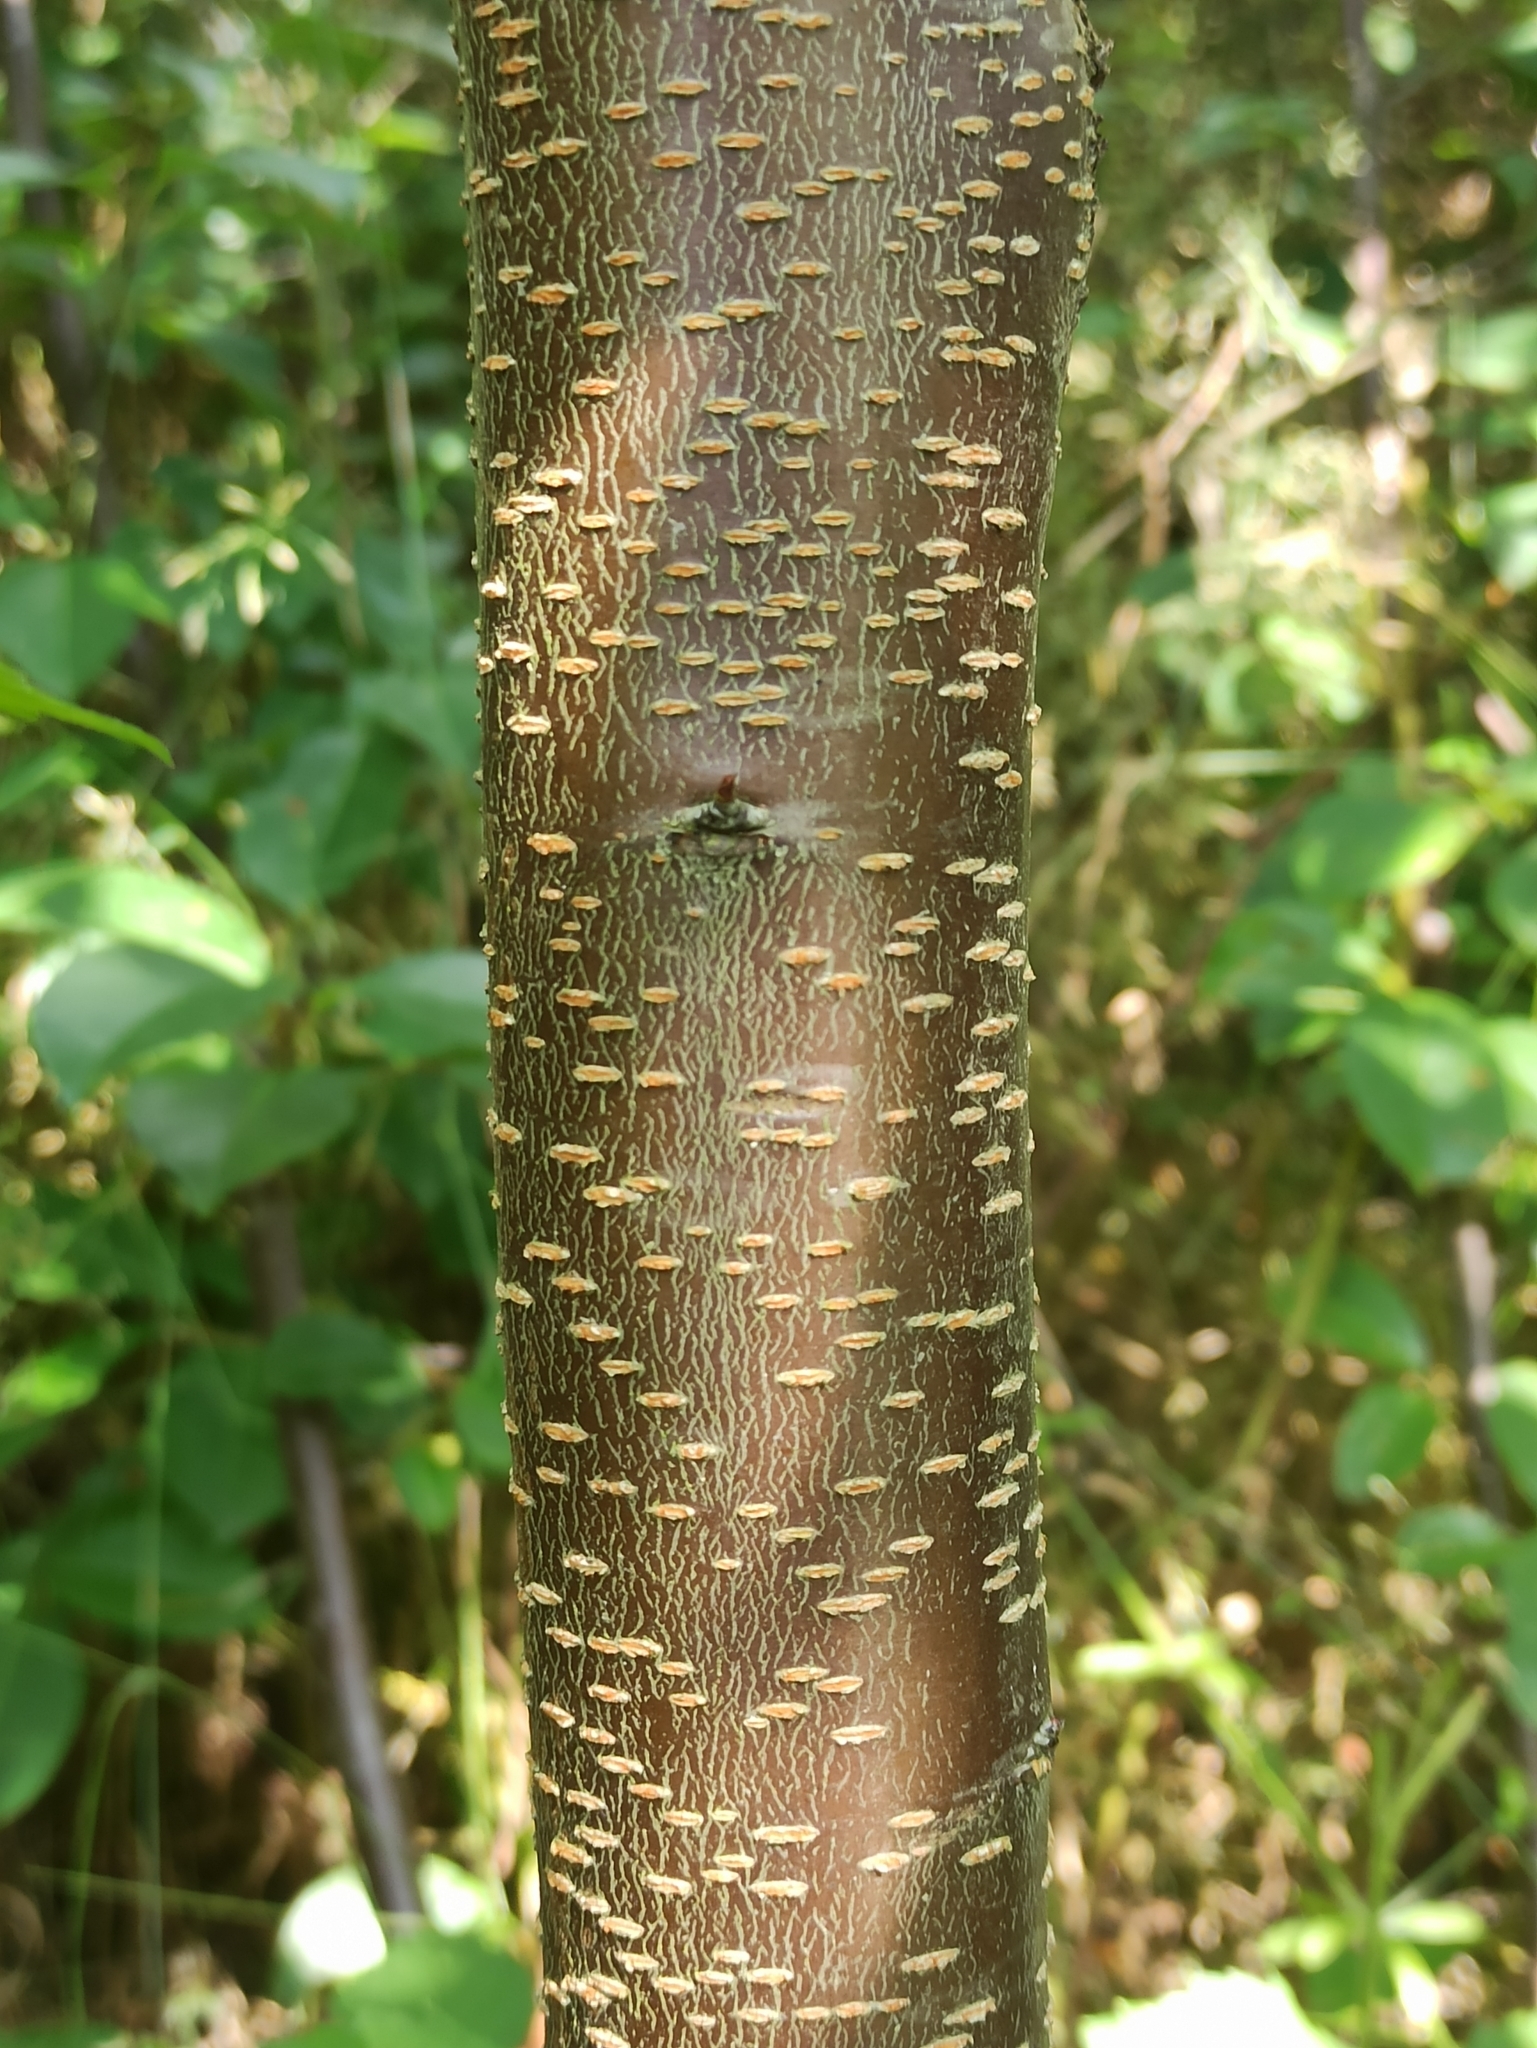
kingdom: Plantae
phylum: Tracheophyta
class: Magnoliopsida
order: Rosales
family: Rosaceae
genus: Prunus
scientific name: Prunus serotina
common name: Black cherry
